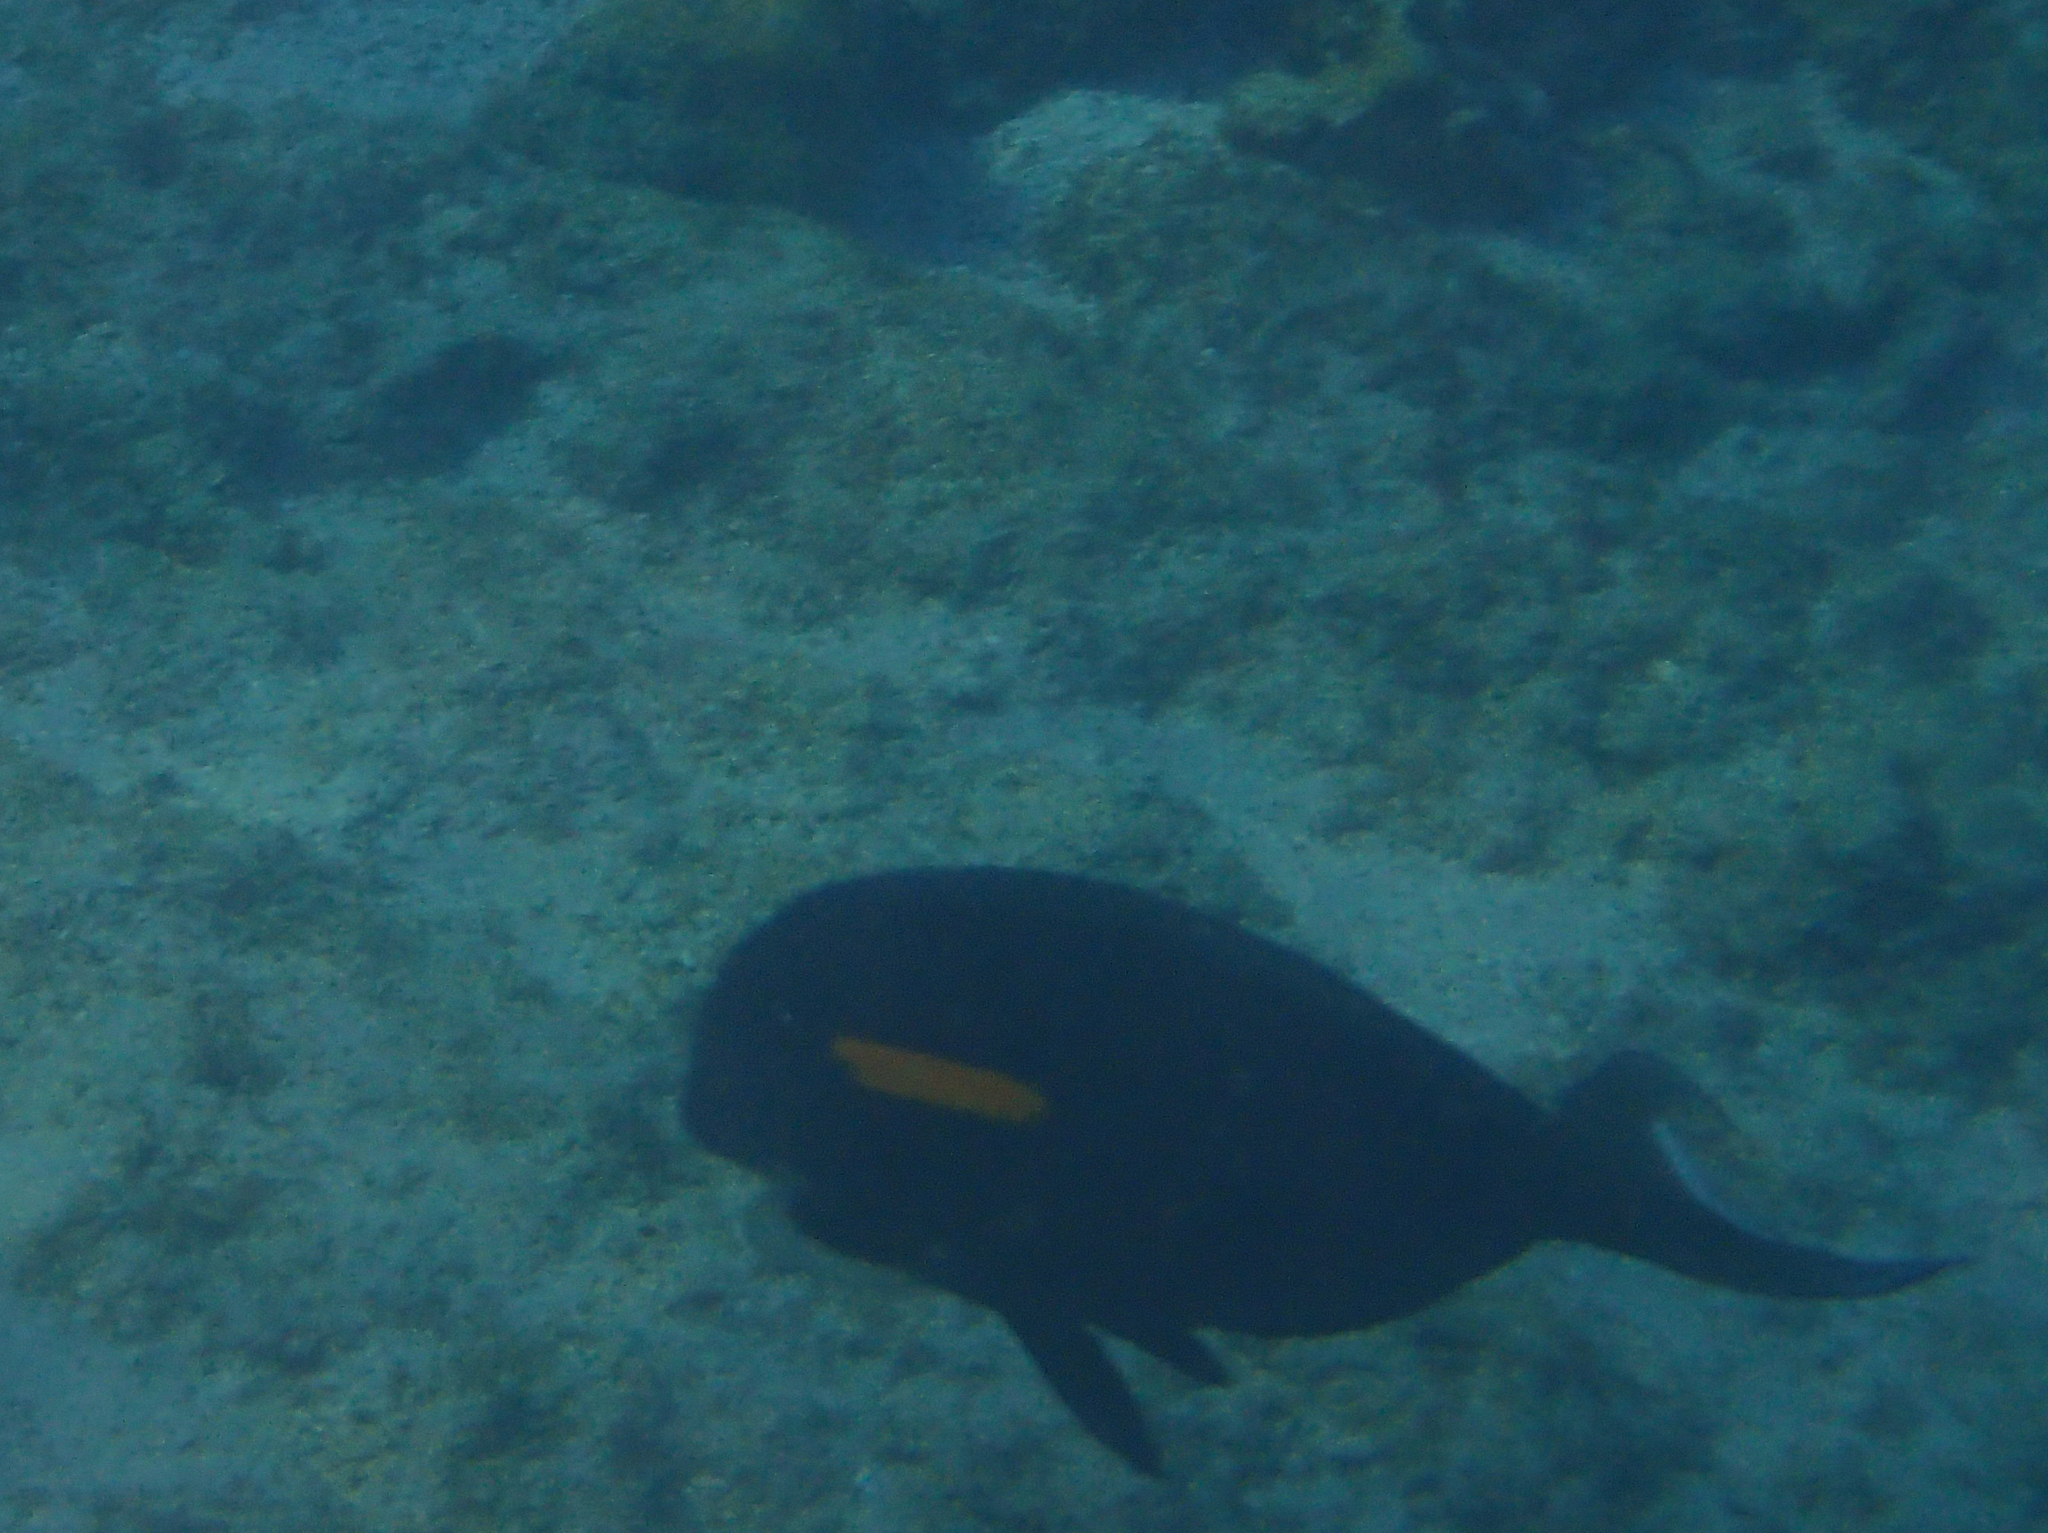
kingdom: Animalia
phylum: Chordata
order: Perciformes
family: Acanthuridae
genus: Acanthurus
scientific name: Acanthurus olivaceus
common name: Gendarme fish
